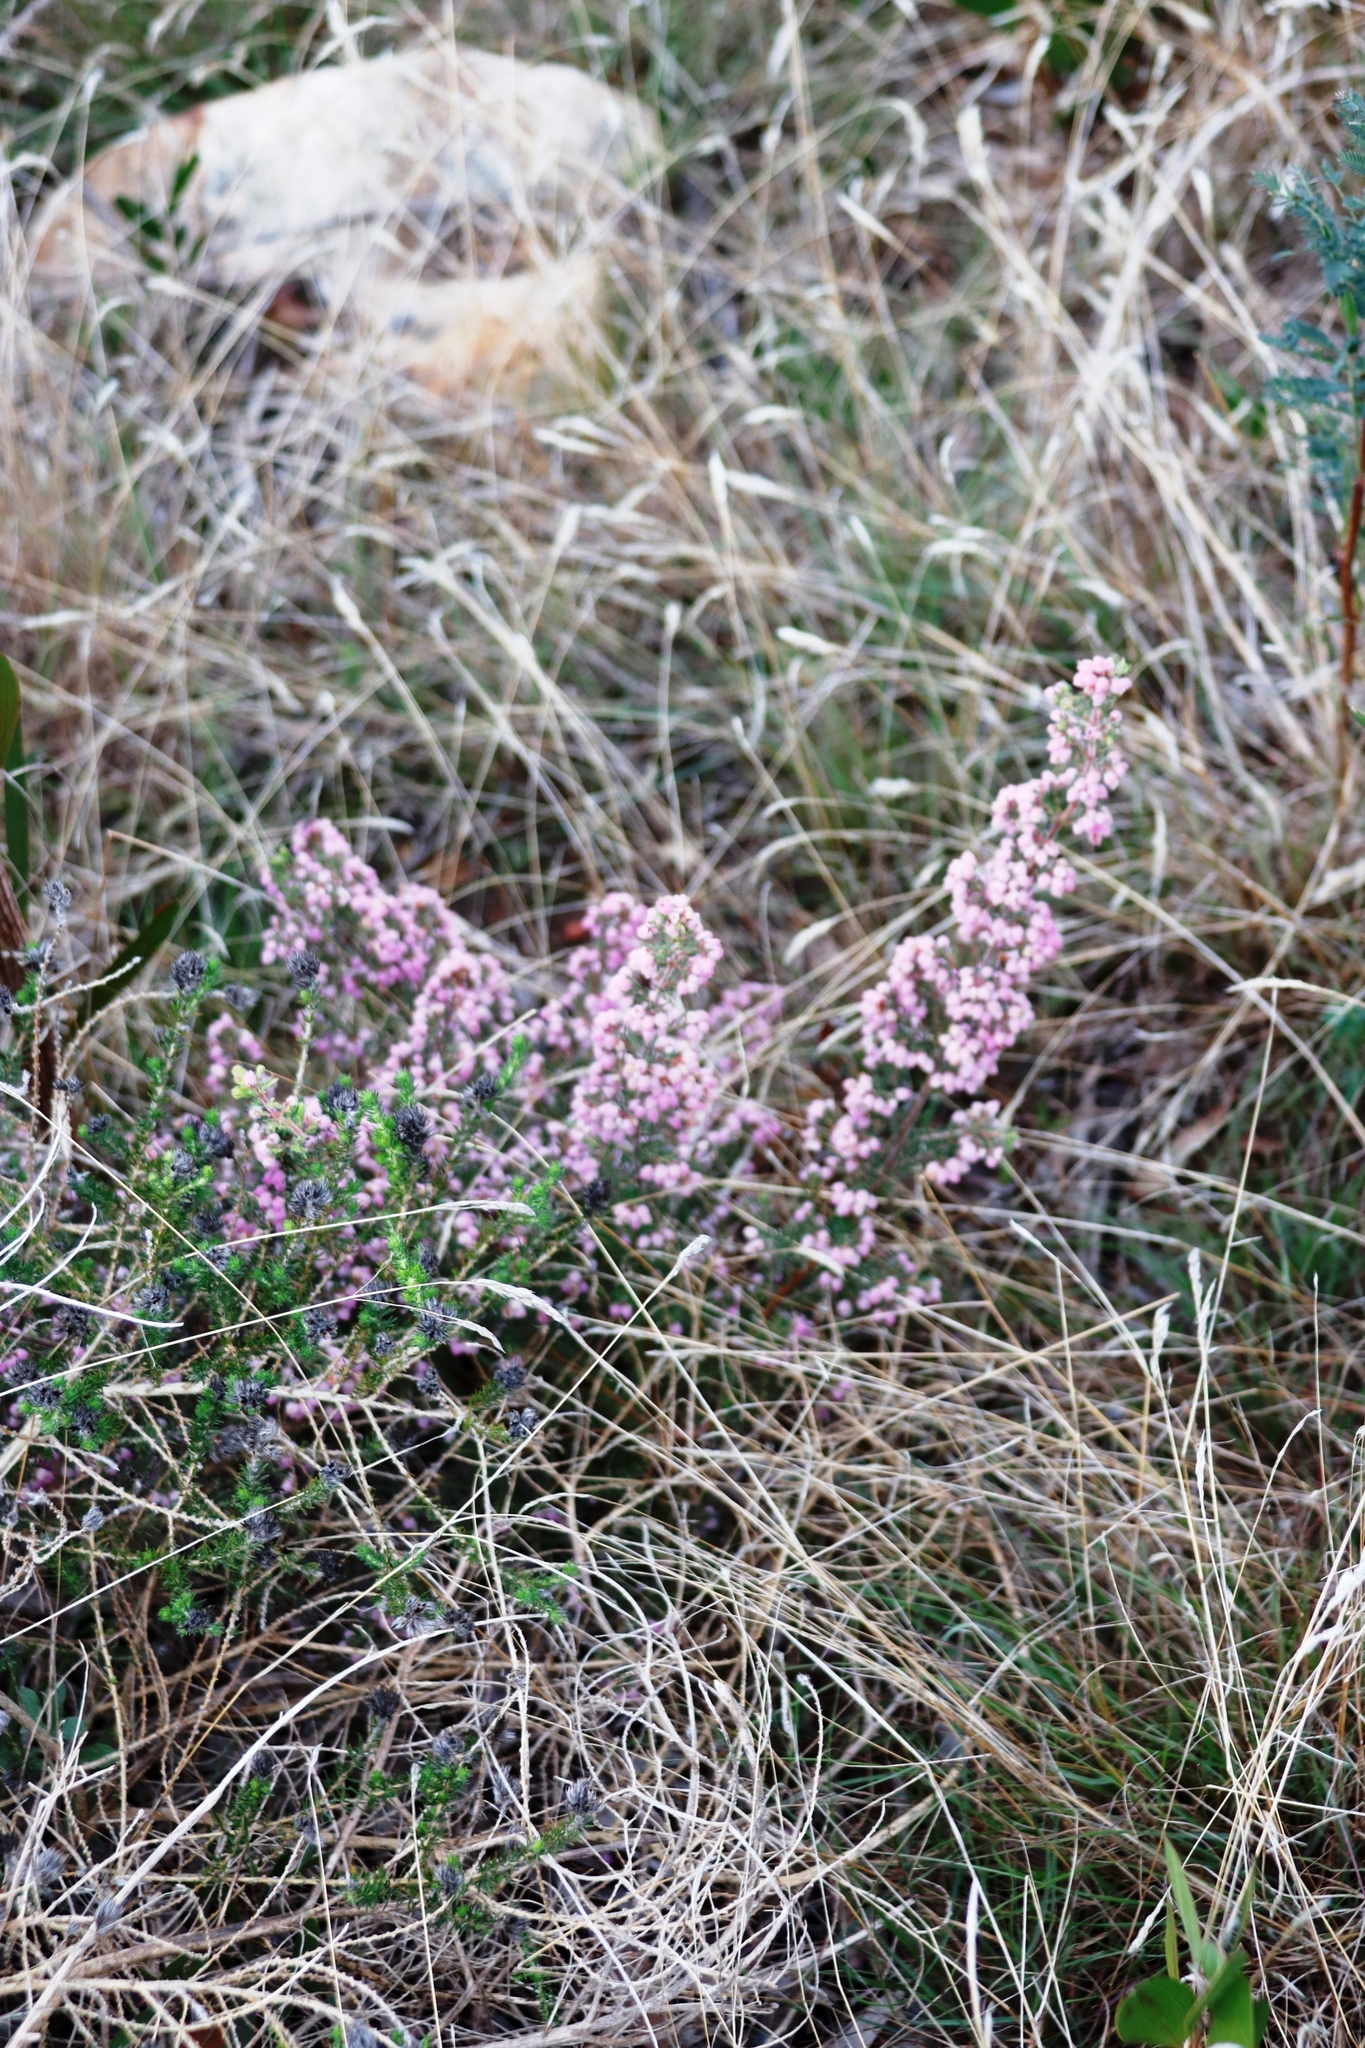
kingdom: Plantae
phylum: Tracheophyta
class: Magnoliopsida
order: Ericales
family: Ericaceae
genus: Erica
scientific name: Erica hirtiflora
